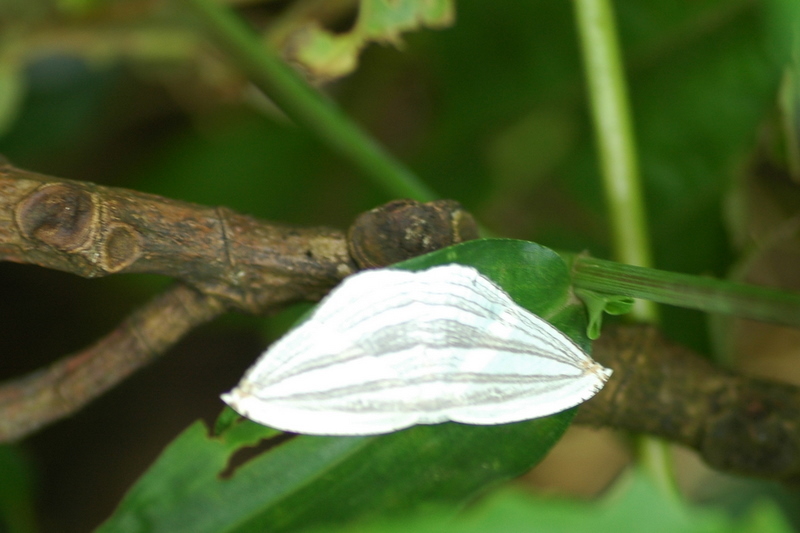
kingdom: Animalia
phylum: Arthropoda
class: Insecta
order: Lepidoptera
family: Uraniidae
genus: Acropteris
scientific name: Acropteris iphiata
